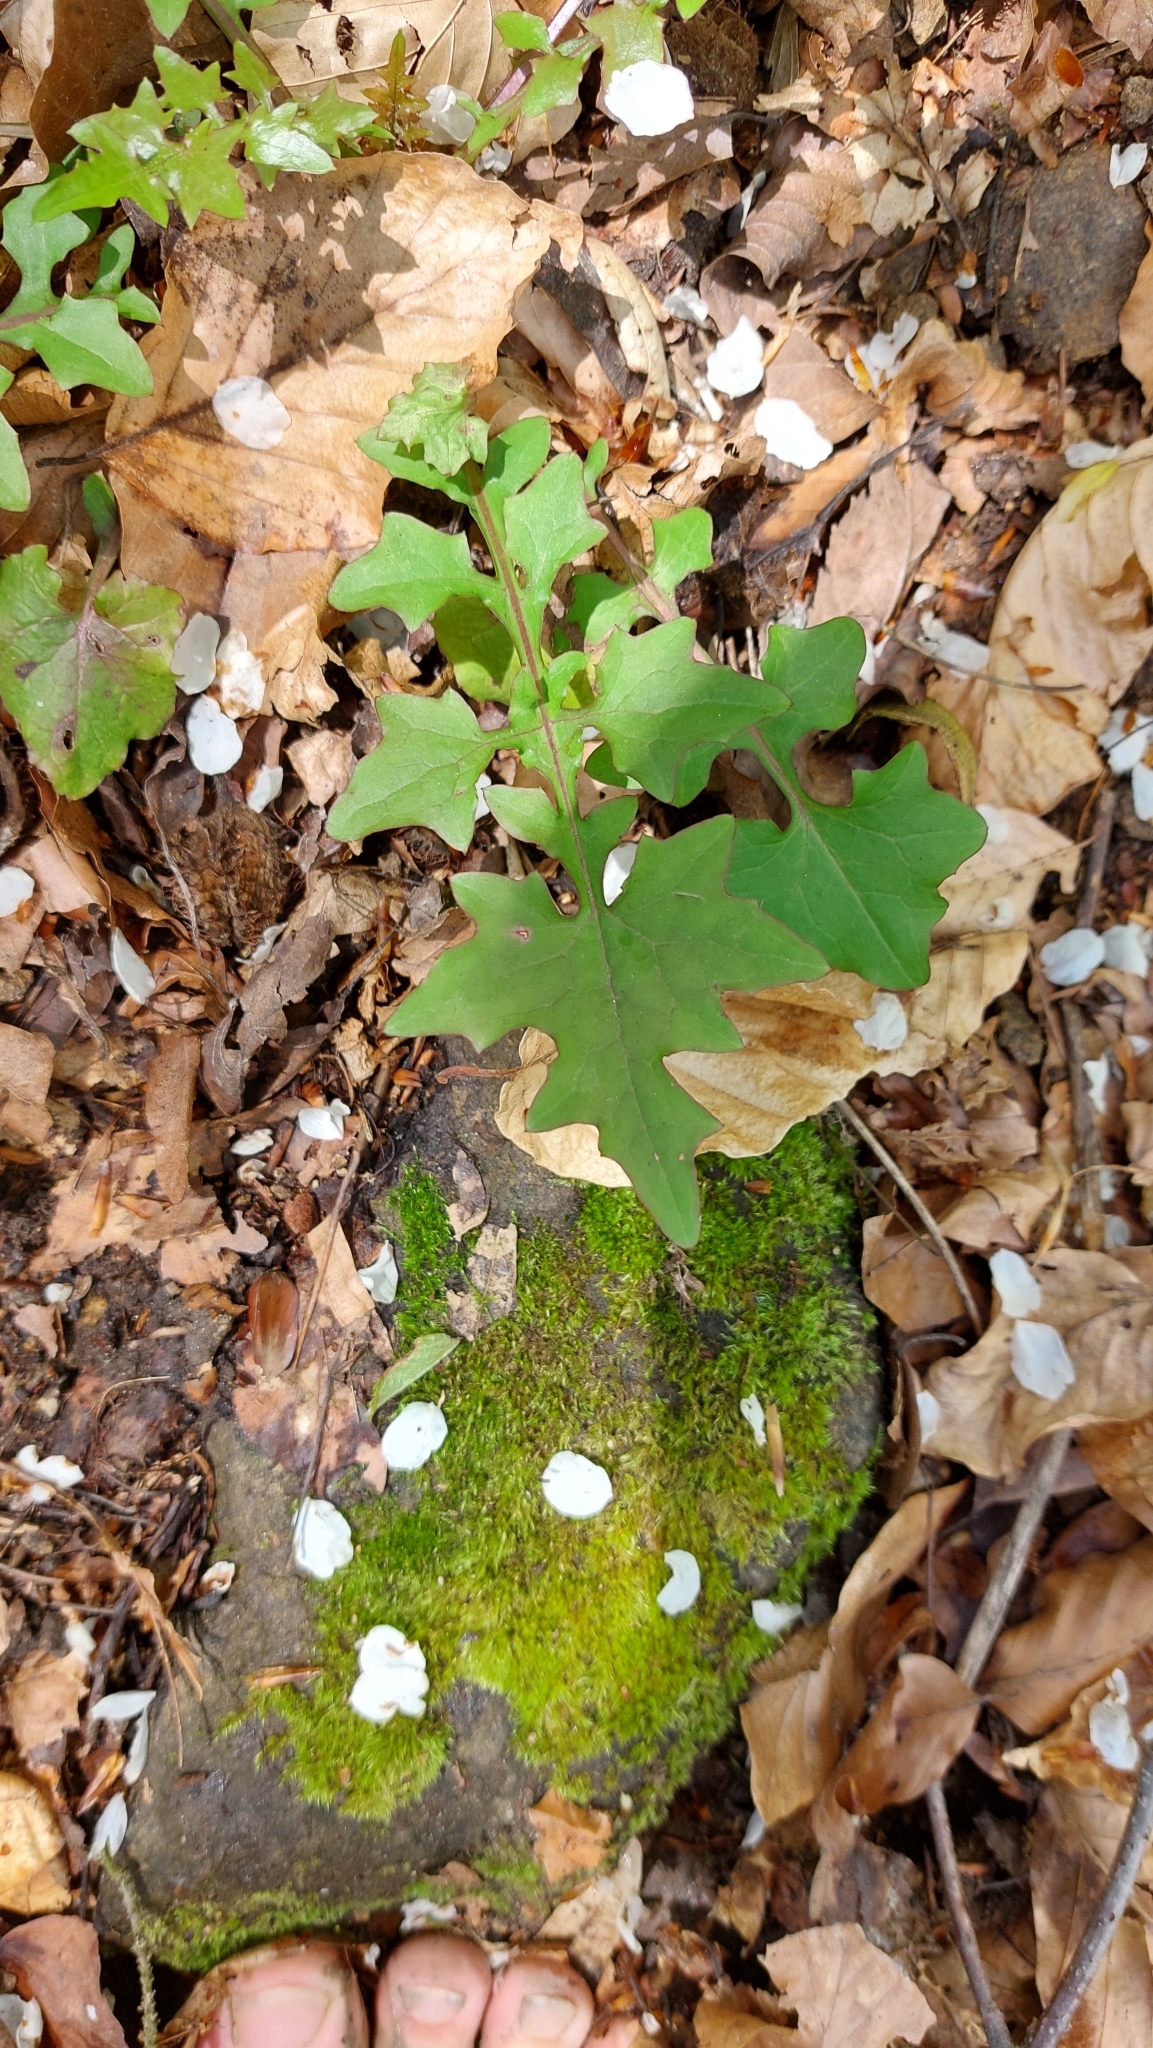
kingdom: Plantae
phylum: Tracheophyta
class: Magnoliopsida
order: Asterales
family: Asteraceae
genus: Mycelis
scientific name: Mycelis muralis
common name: Wall lettuce
